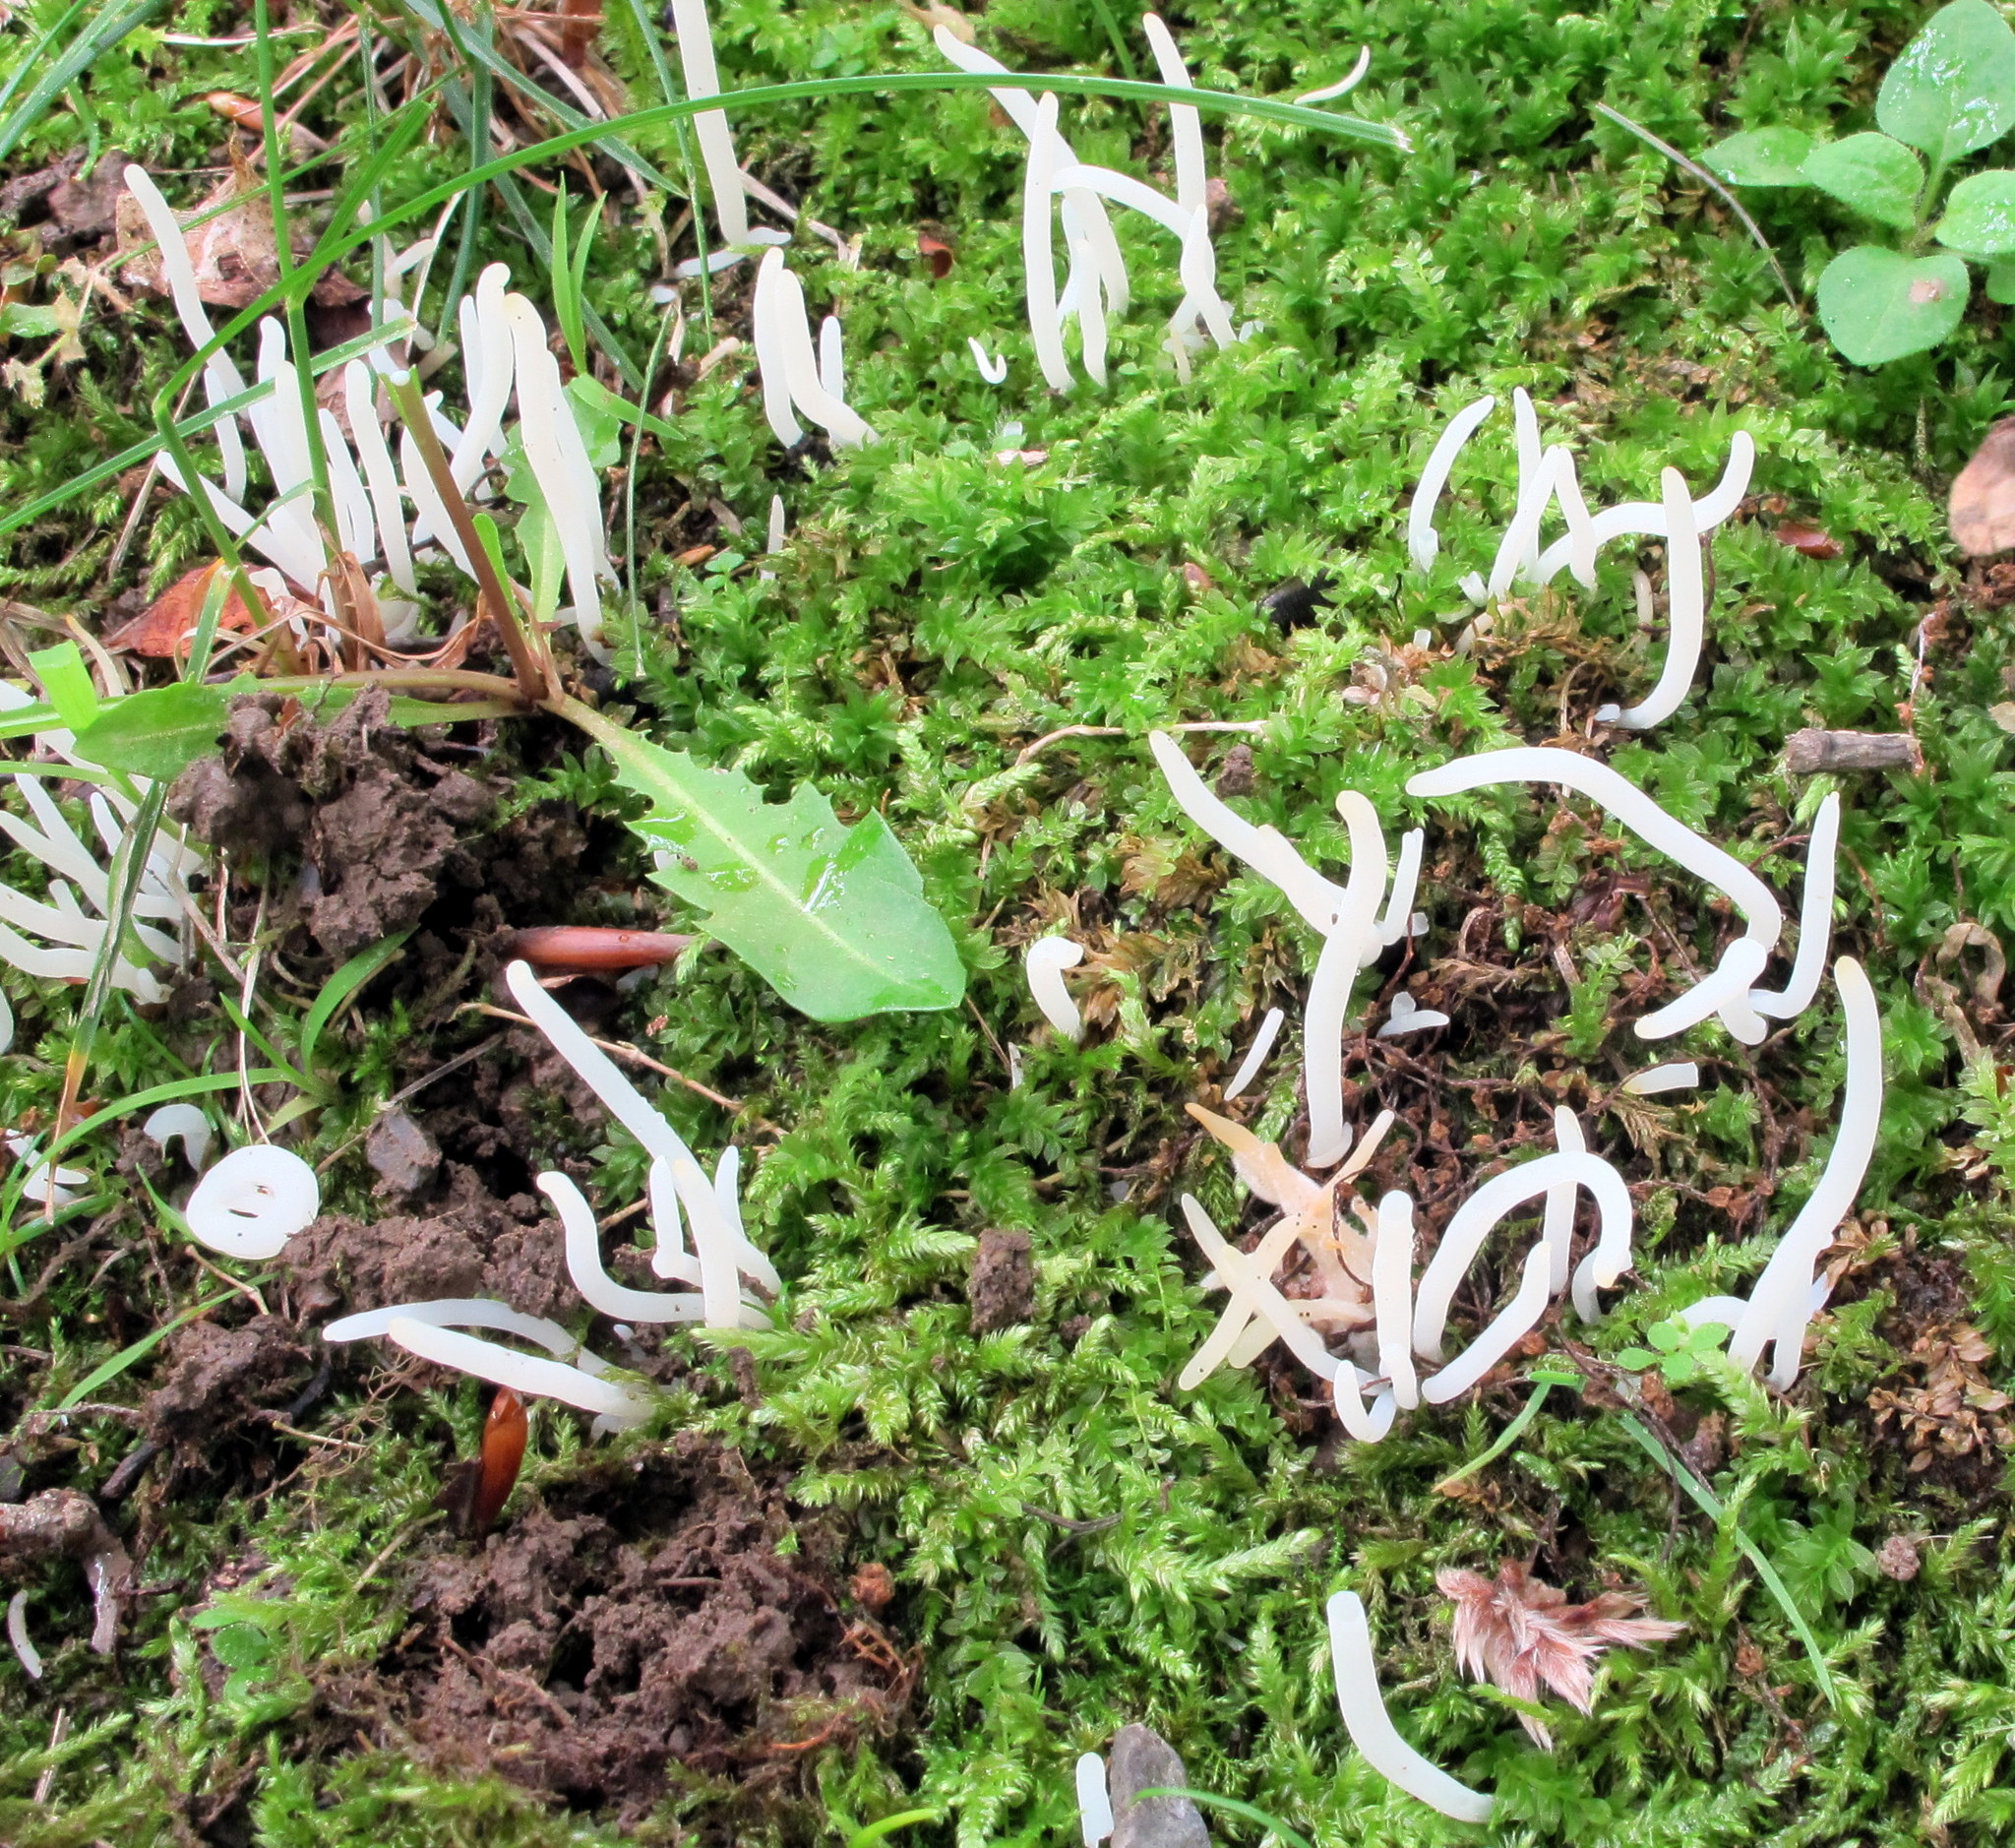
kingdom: Fungi
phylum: Basidiomycota
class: Agaricomycetes
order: Agaricales
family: Clavariaceae
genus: Clavaria
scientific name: Clavaria fragilis
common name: White spindles
